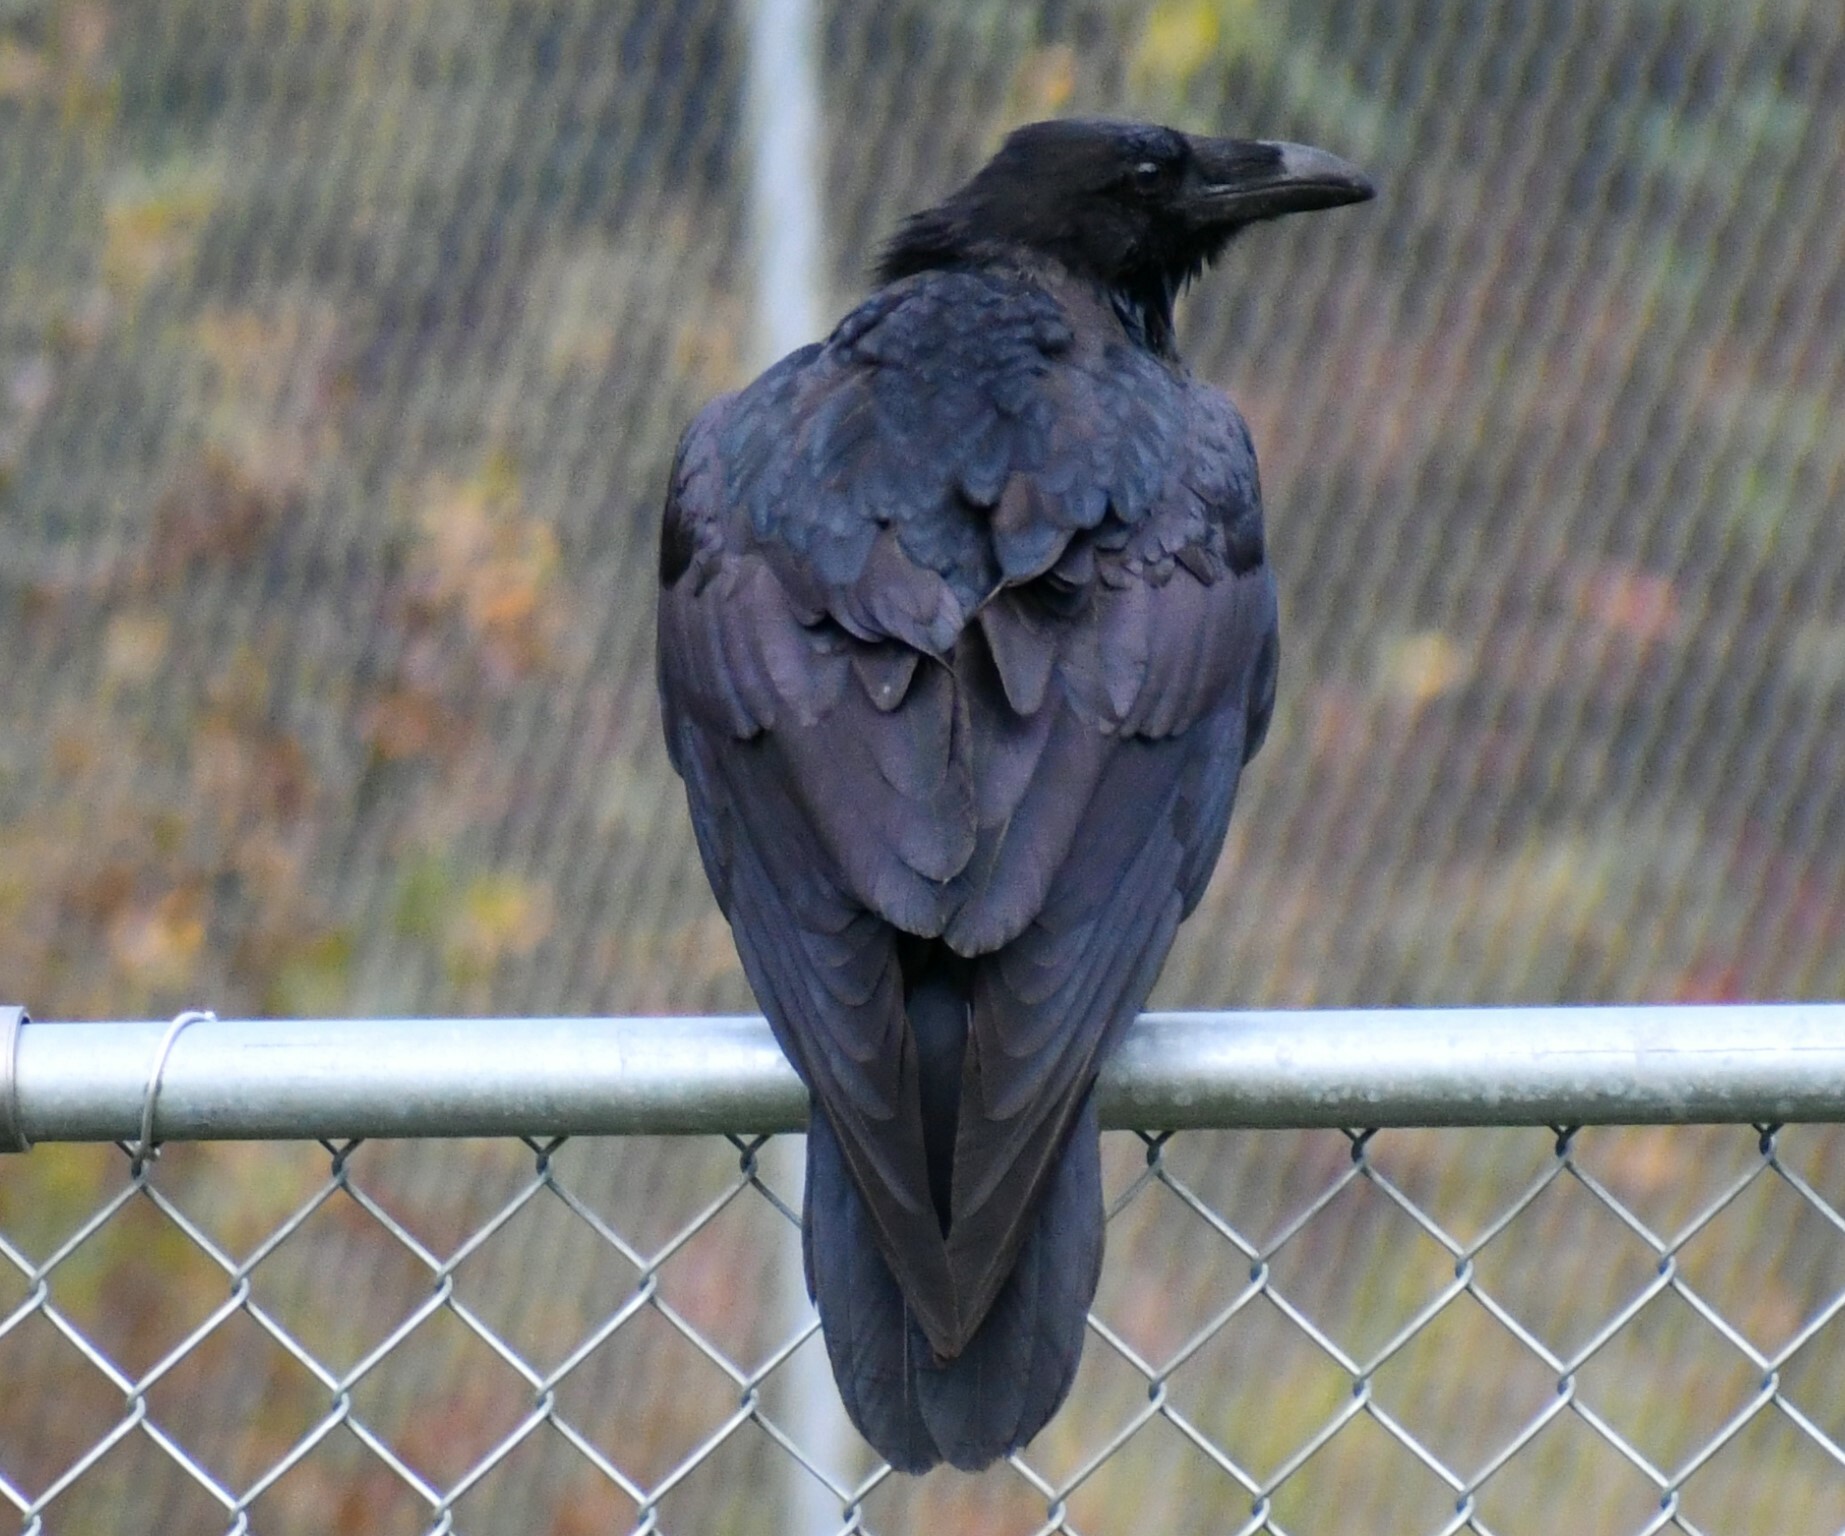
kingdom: Animalia
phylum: Chordata
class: Aves
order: Passeriformes
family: Corvidae
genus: Corvus
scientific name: Corvus corax
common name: Common raven
